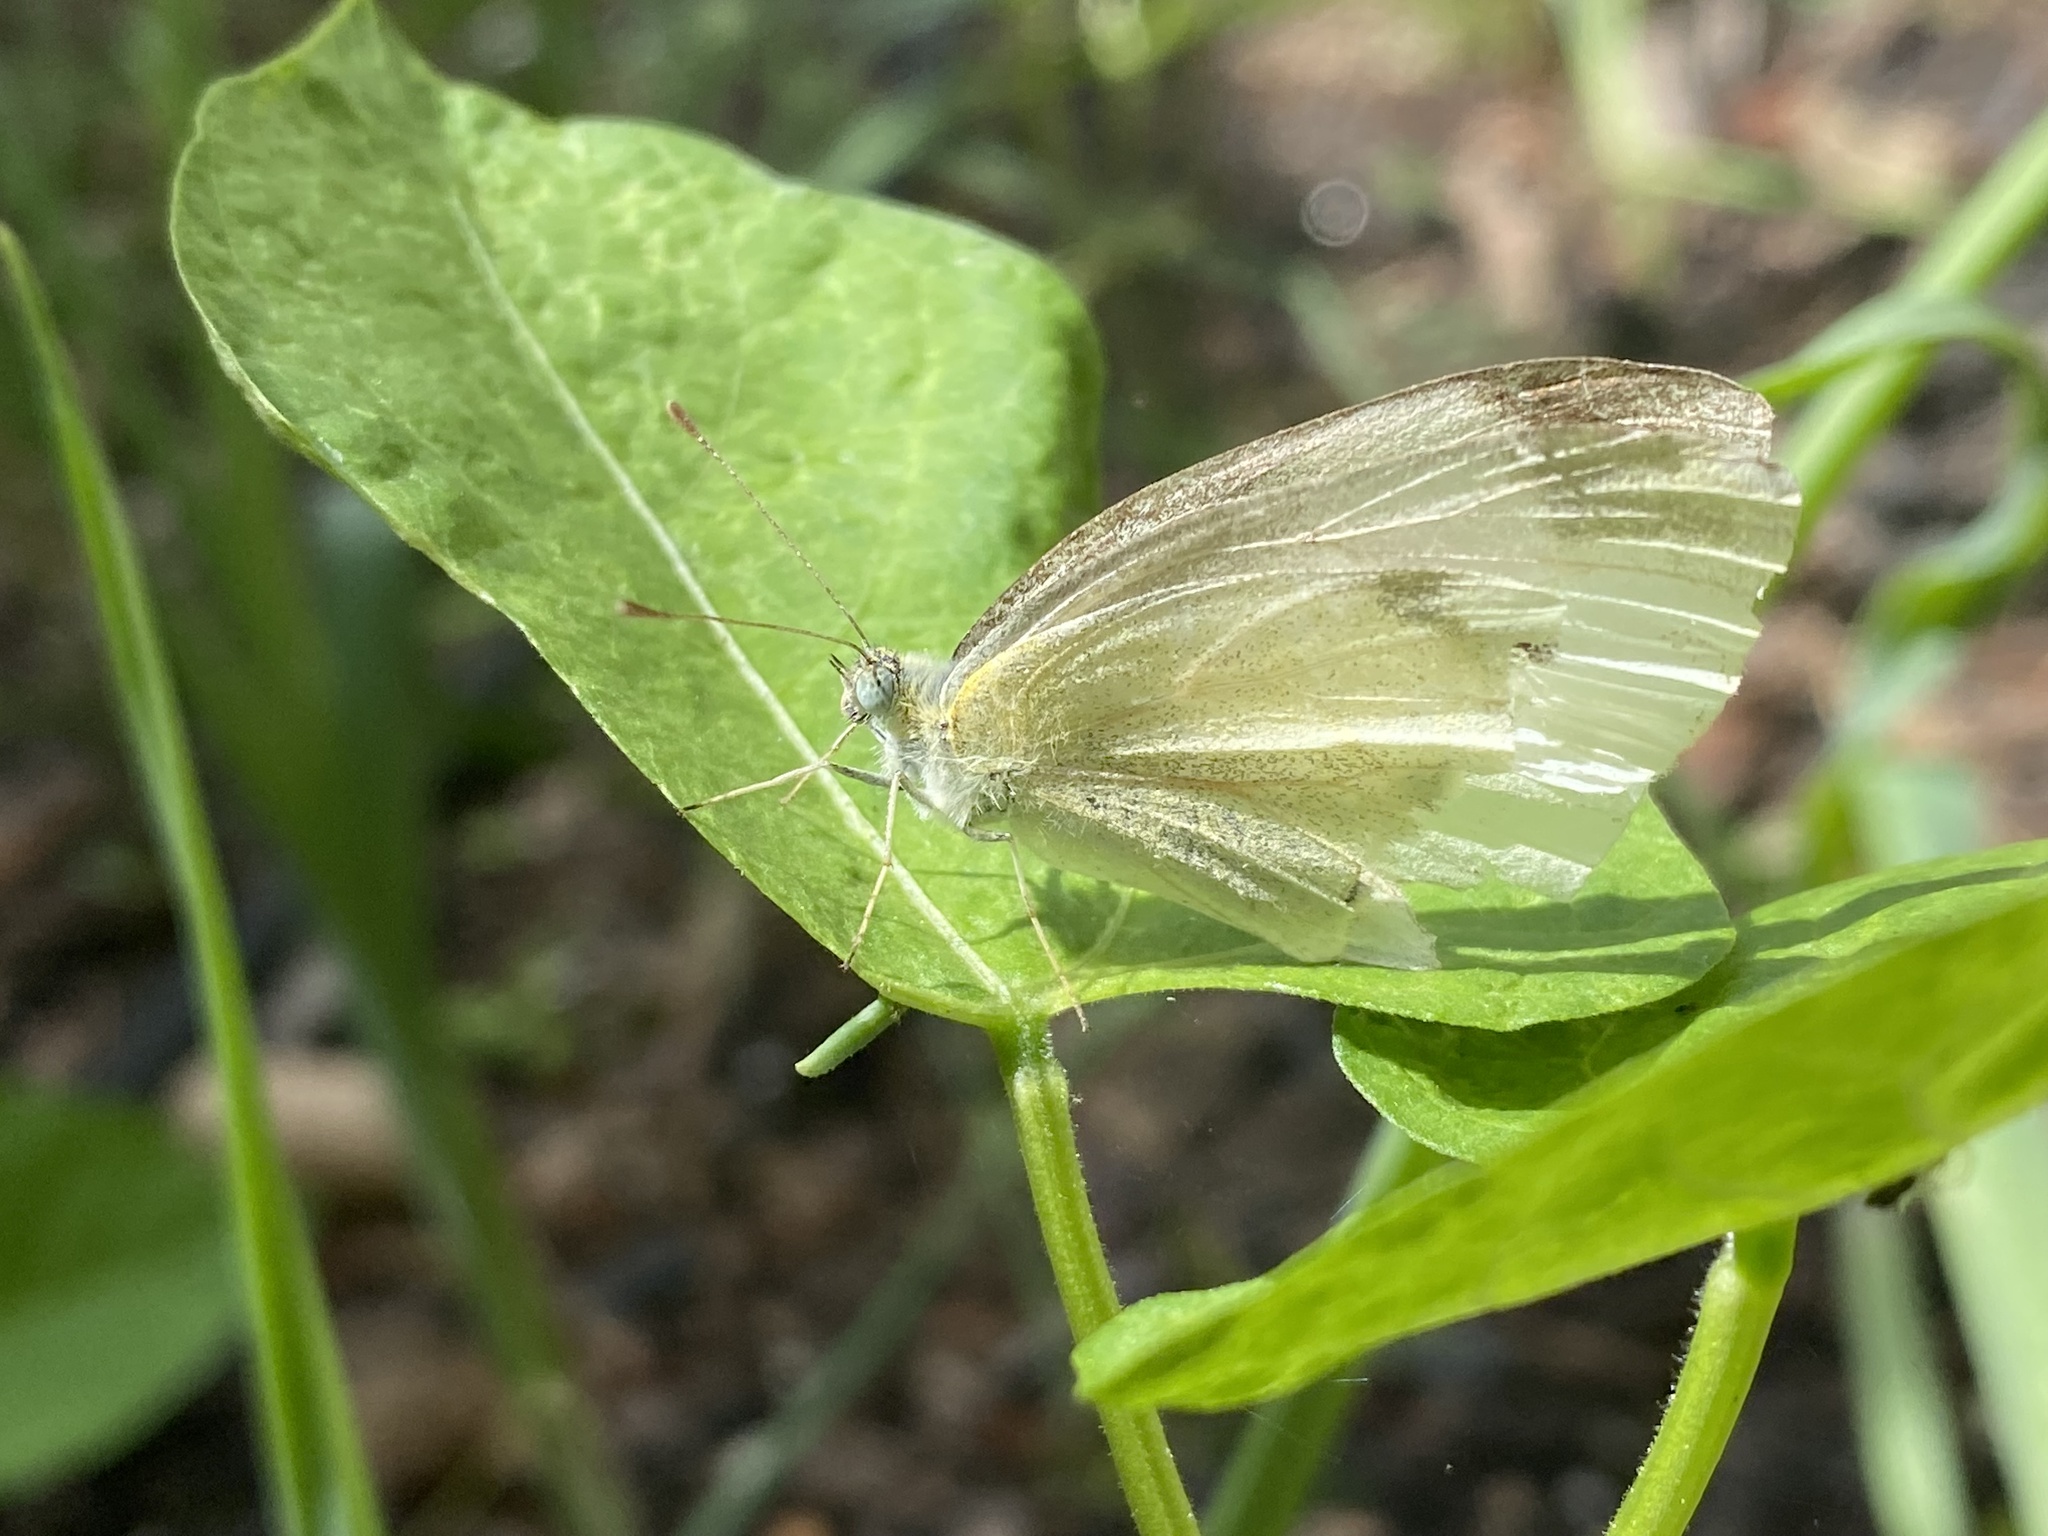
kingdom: Animalia
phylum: Arthropoda
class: Insecta
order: Lepidoptera
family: Pieridae
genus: Pieris
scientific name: Pieris rapae
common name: Small white
